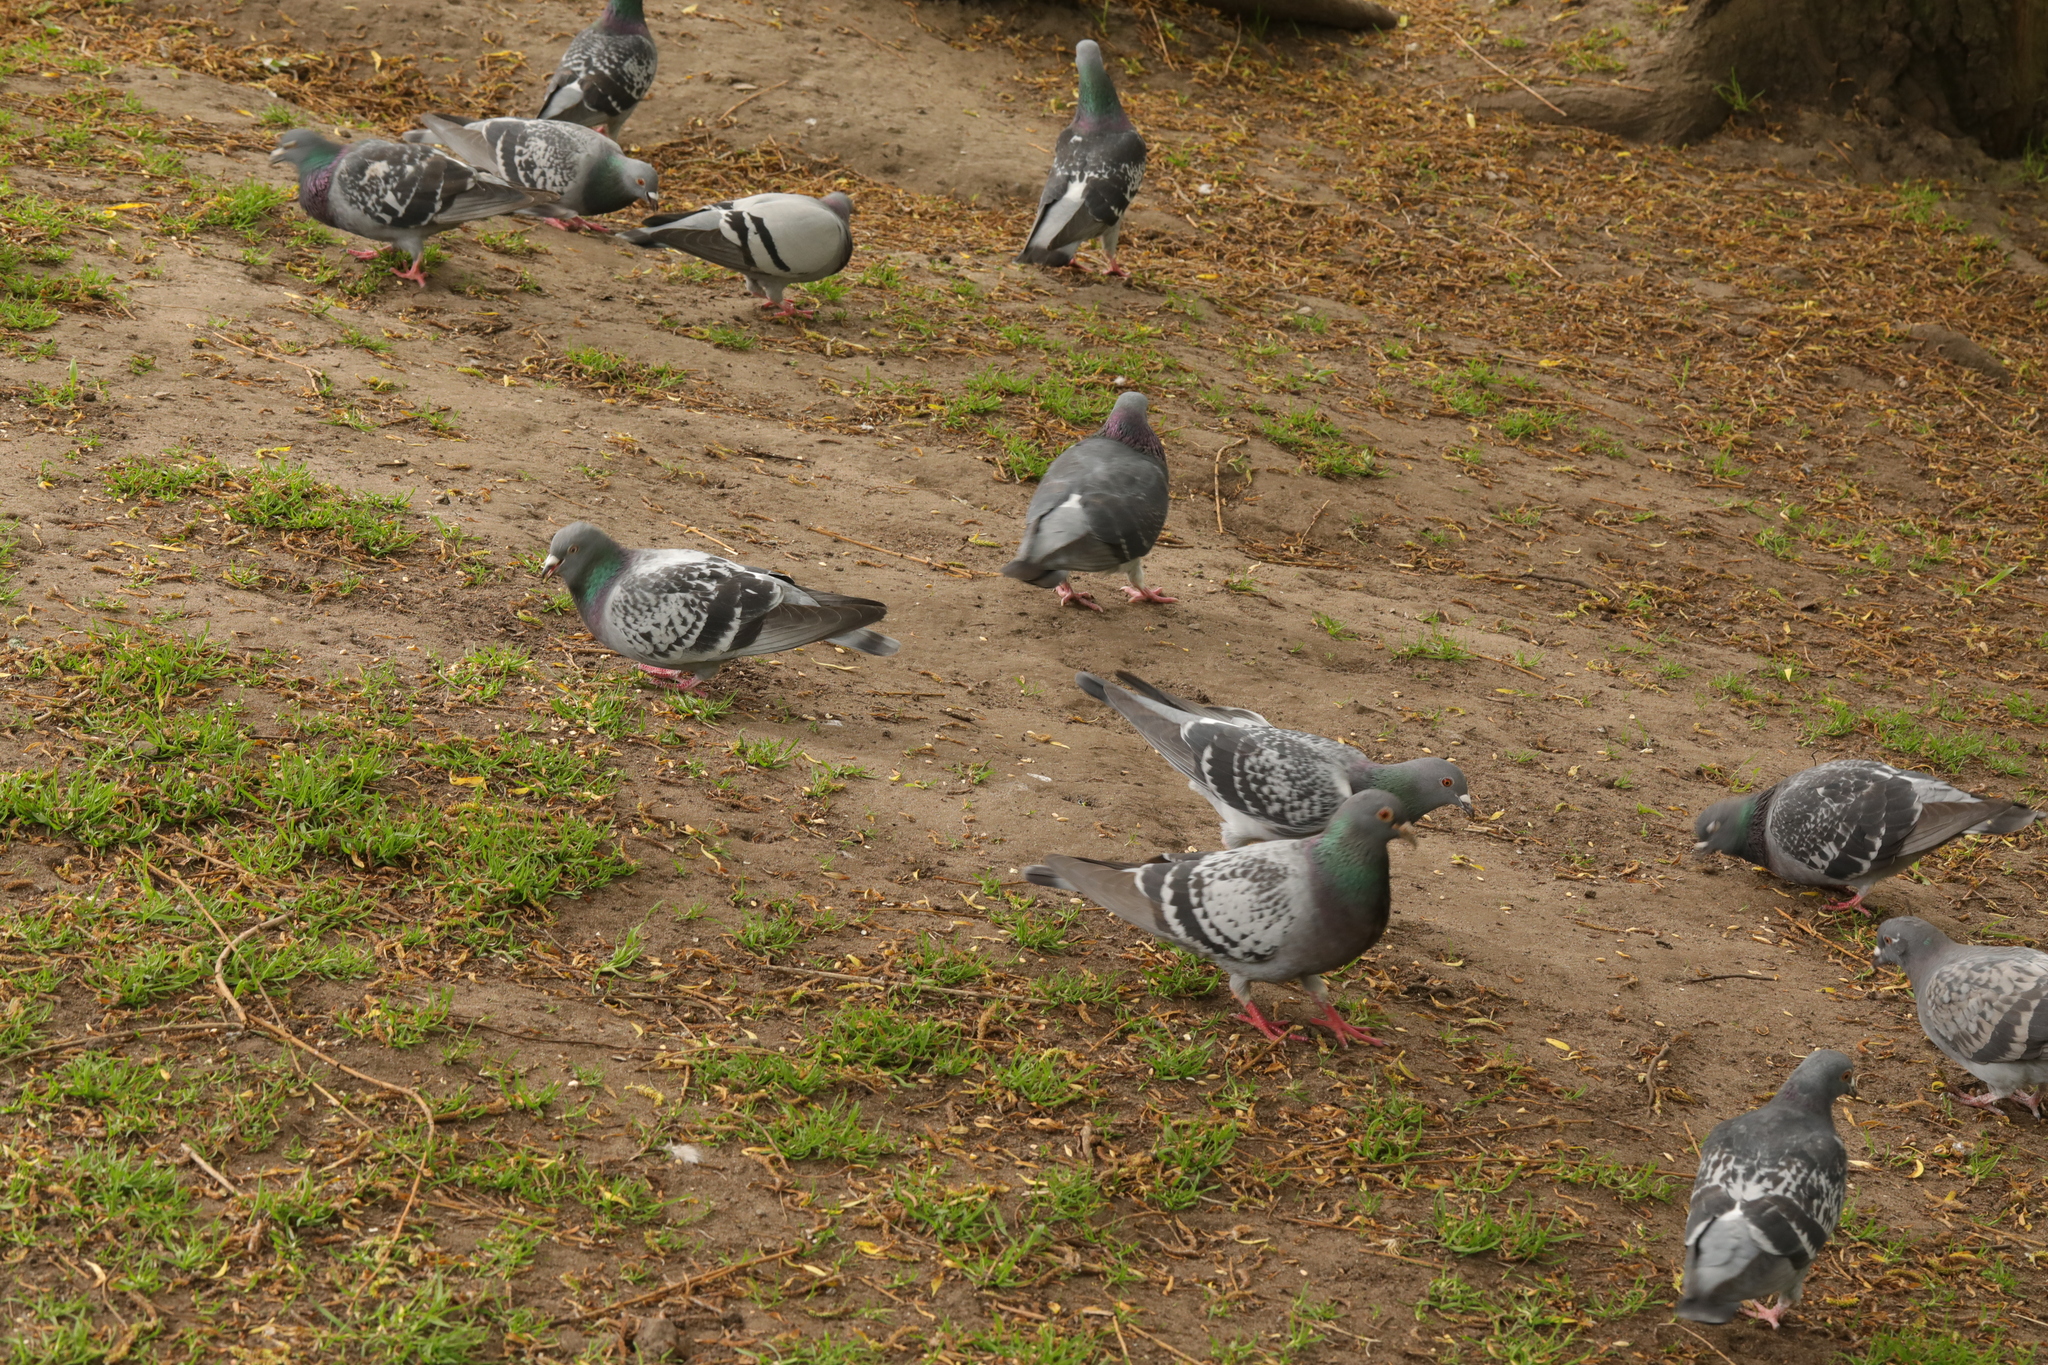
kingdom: Animalia
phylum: Chordata
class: Aves
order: Columbiformes
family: Columbidae
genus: Columba
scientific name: Columba livia
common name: Rock pigeon
